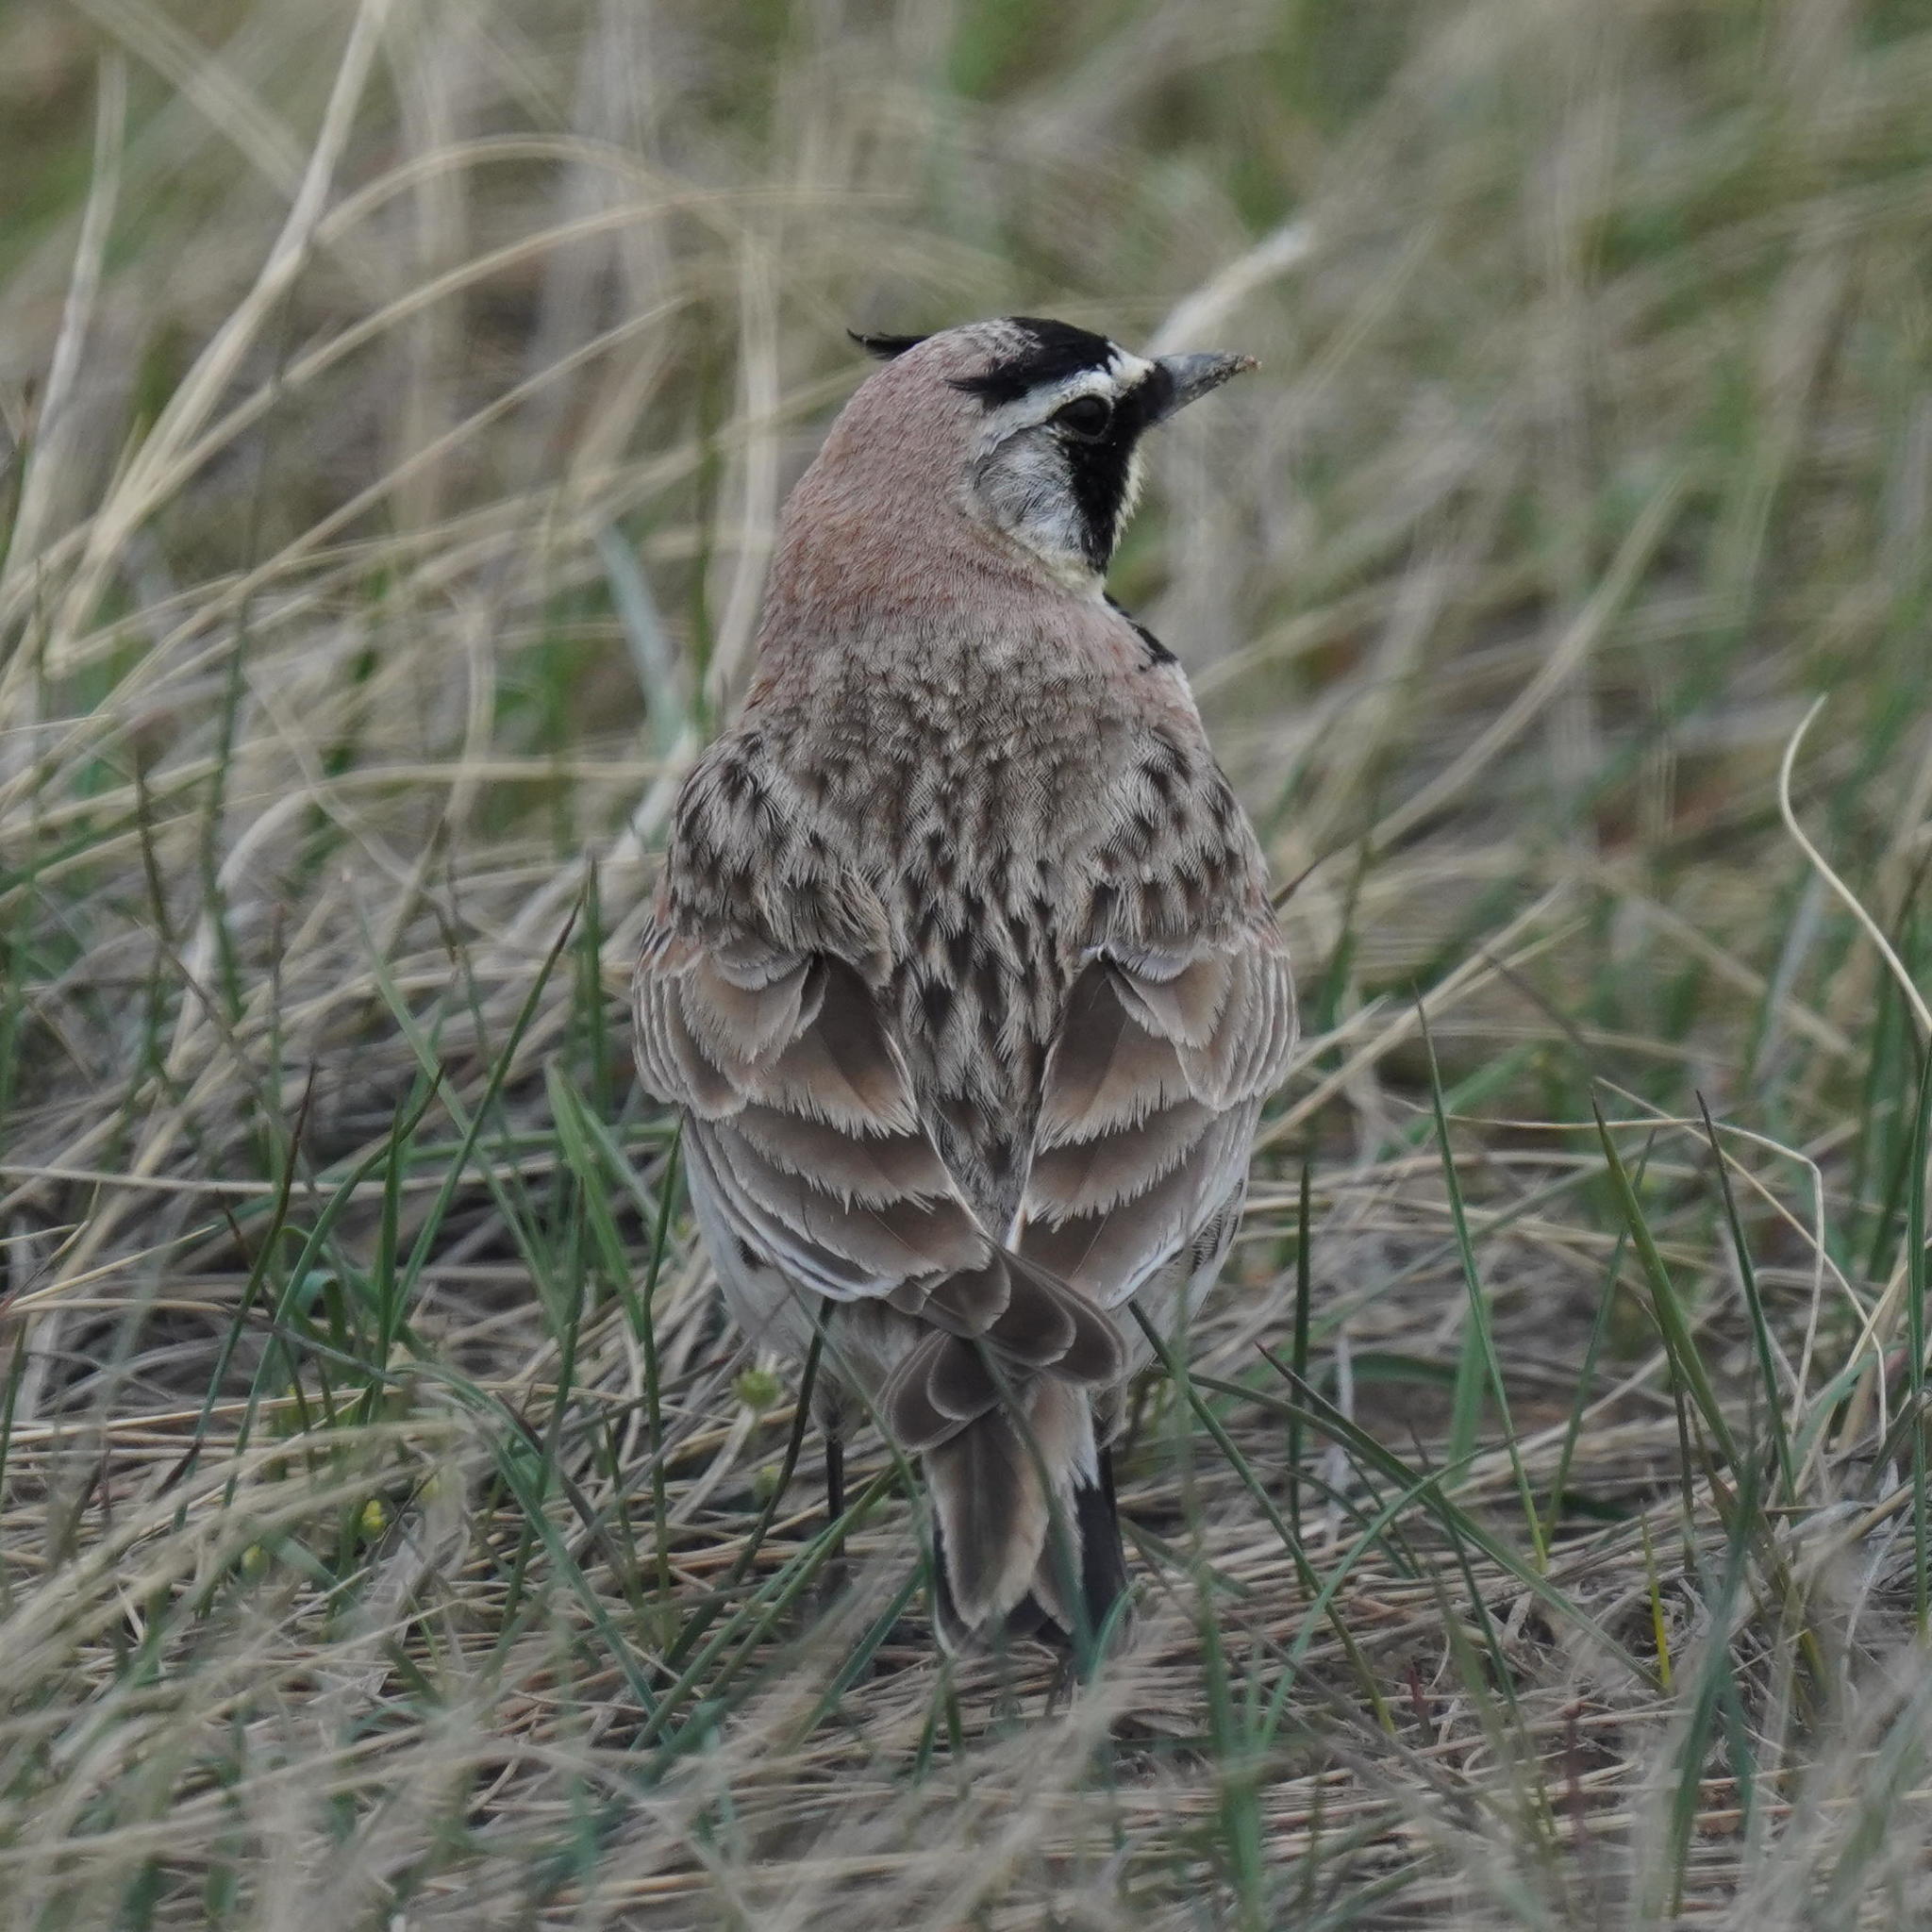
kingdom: Animalia
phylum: Chordata
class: Aves
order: Passeriformes
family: Alaudidae
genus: Eremophila
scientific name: Eremophila alpestris
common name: Horned lark
